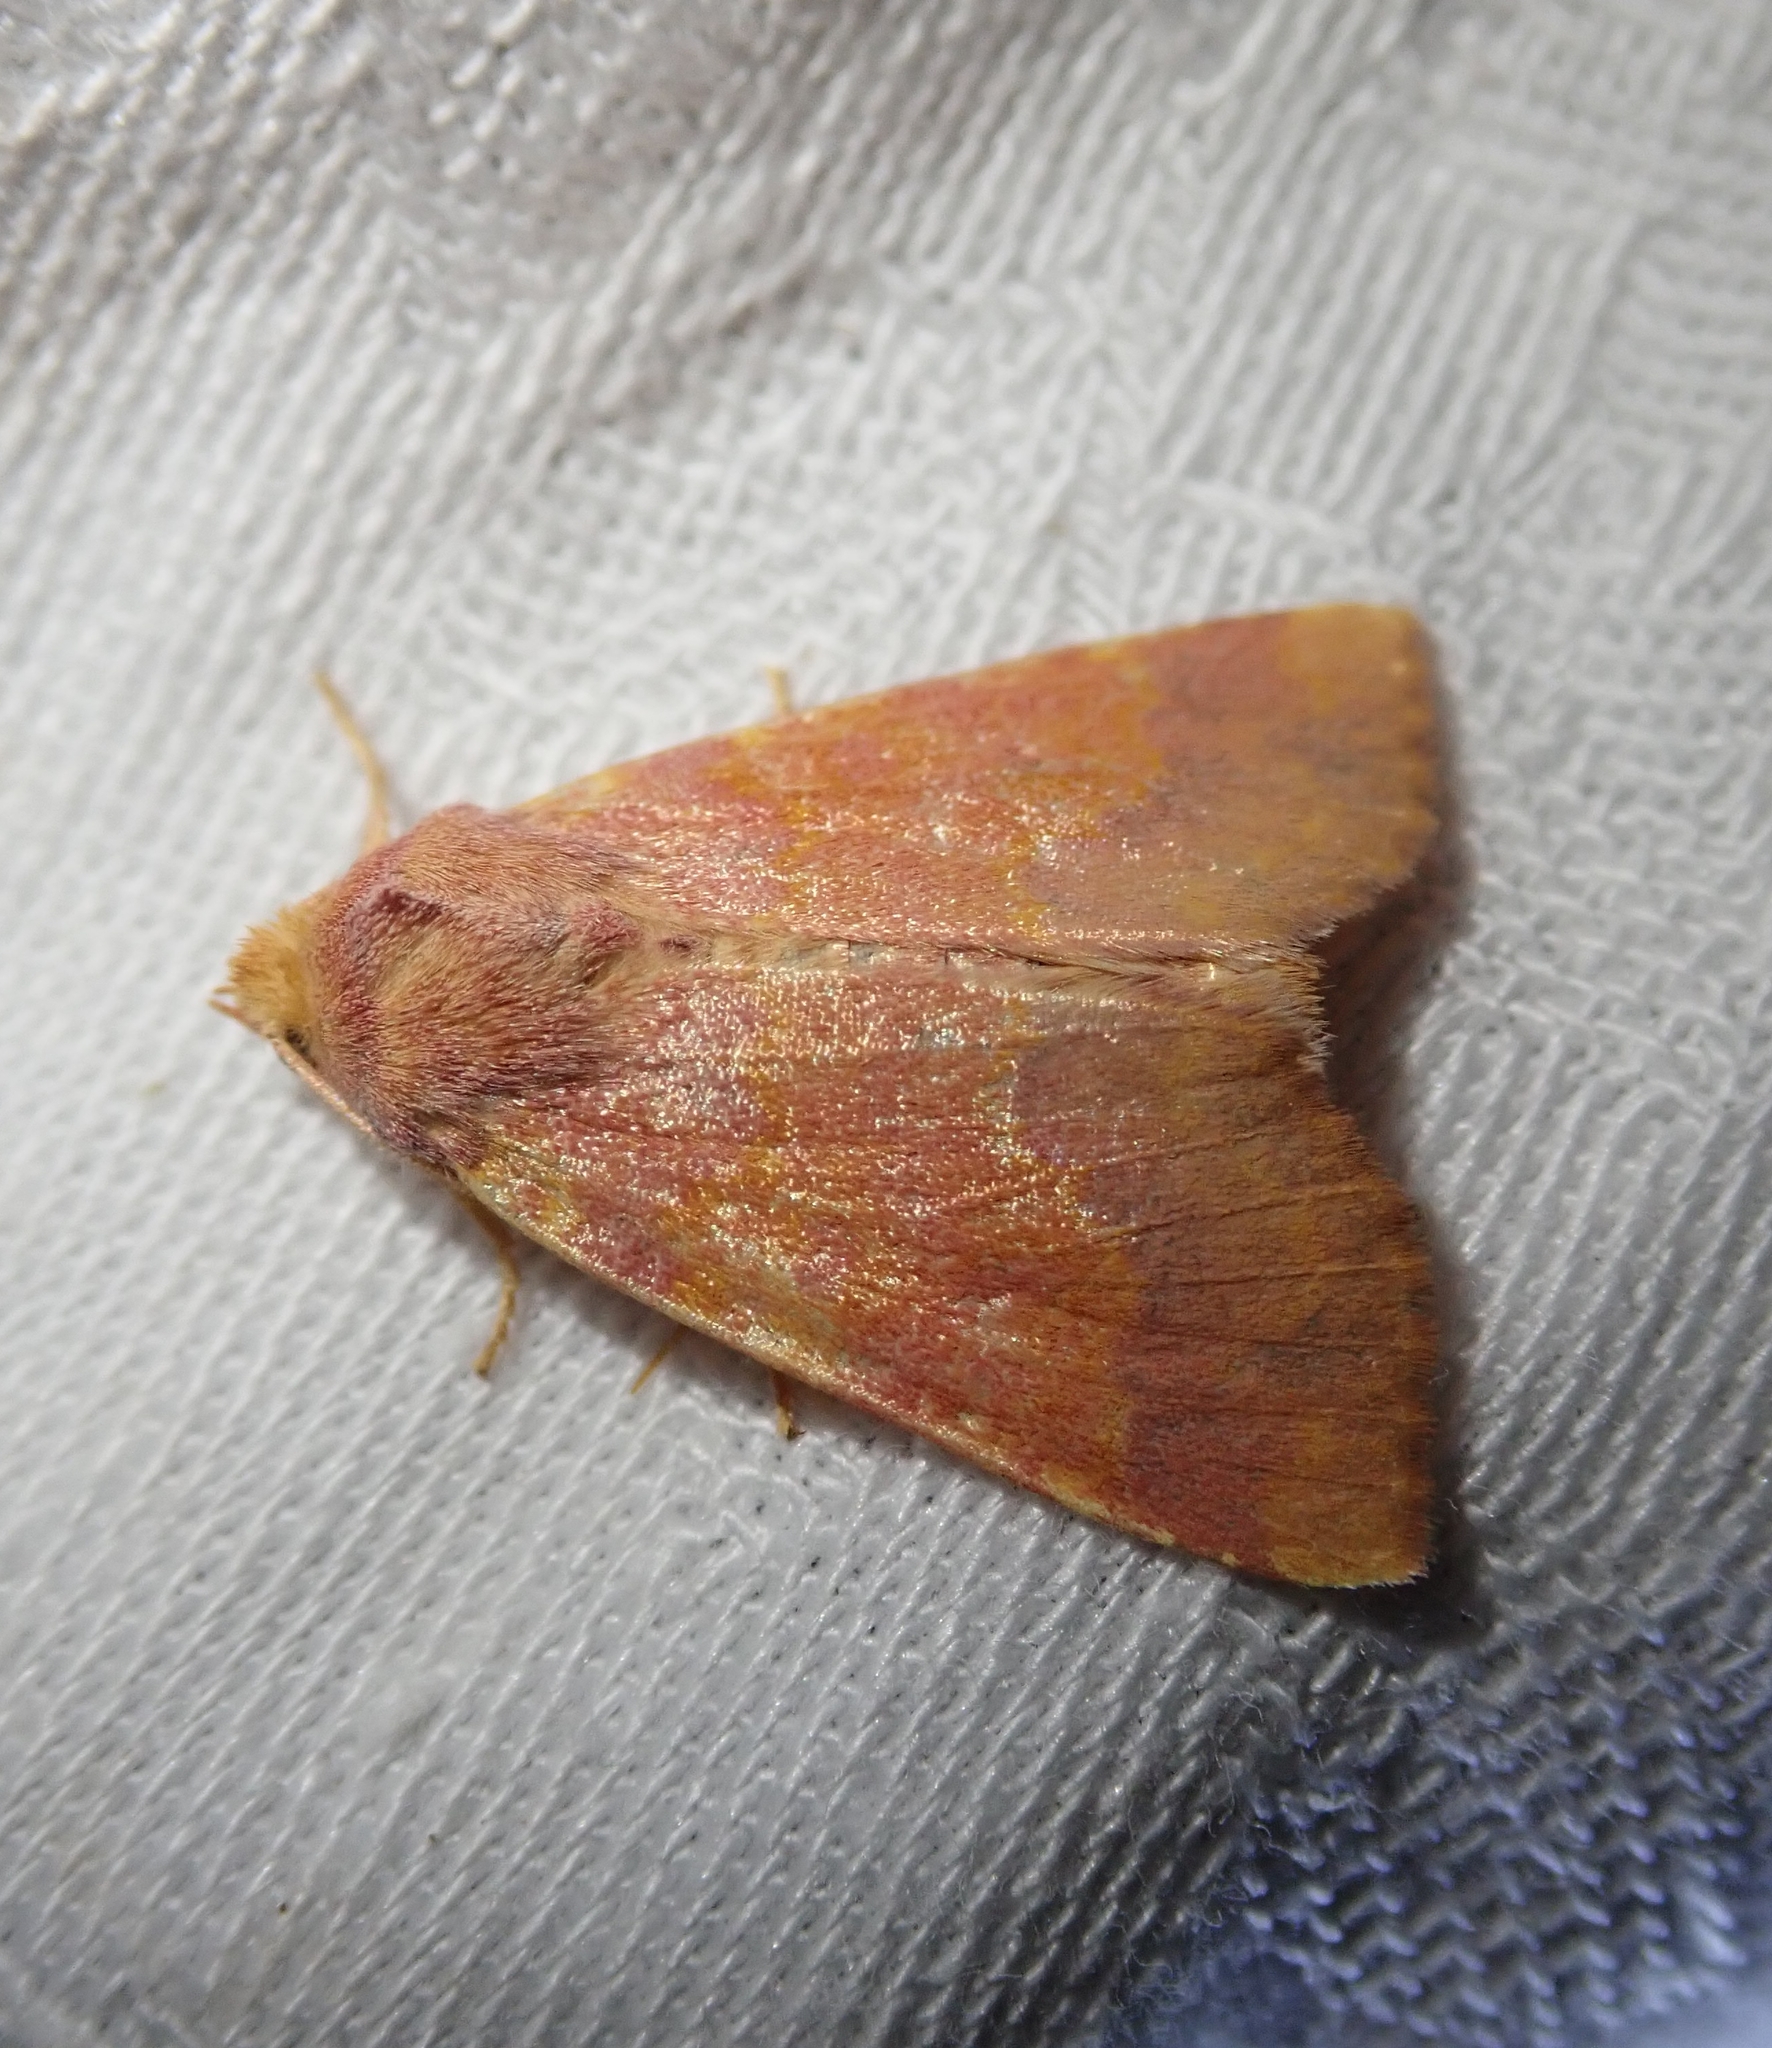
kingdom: Animalia
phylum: Arthropoda
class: Insecta
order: Lepidoptera
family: Noctuidae
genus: Tiliacea
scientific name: Tiliacea aurago
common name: Barred sallow
